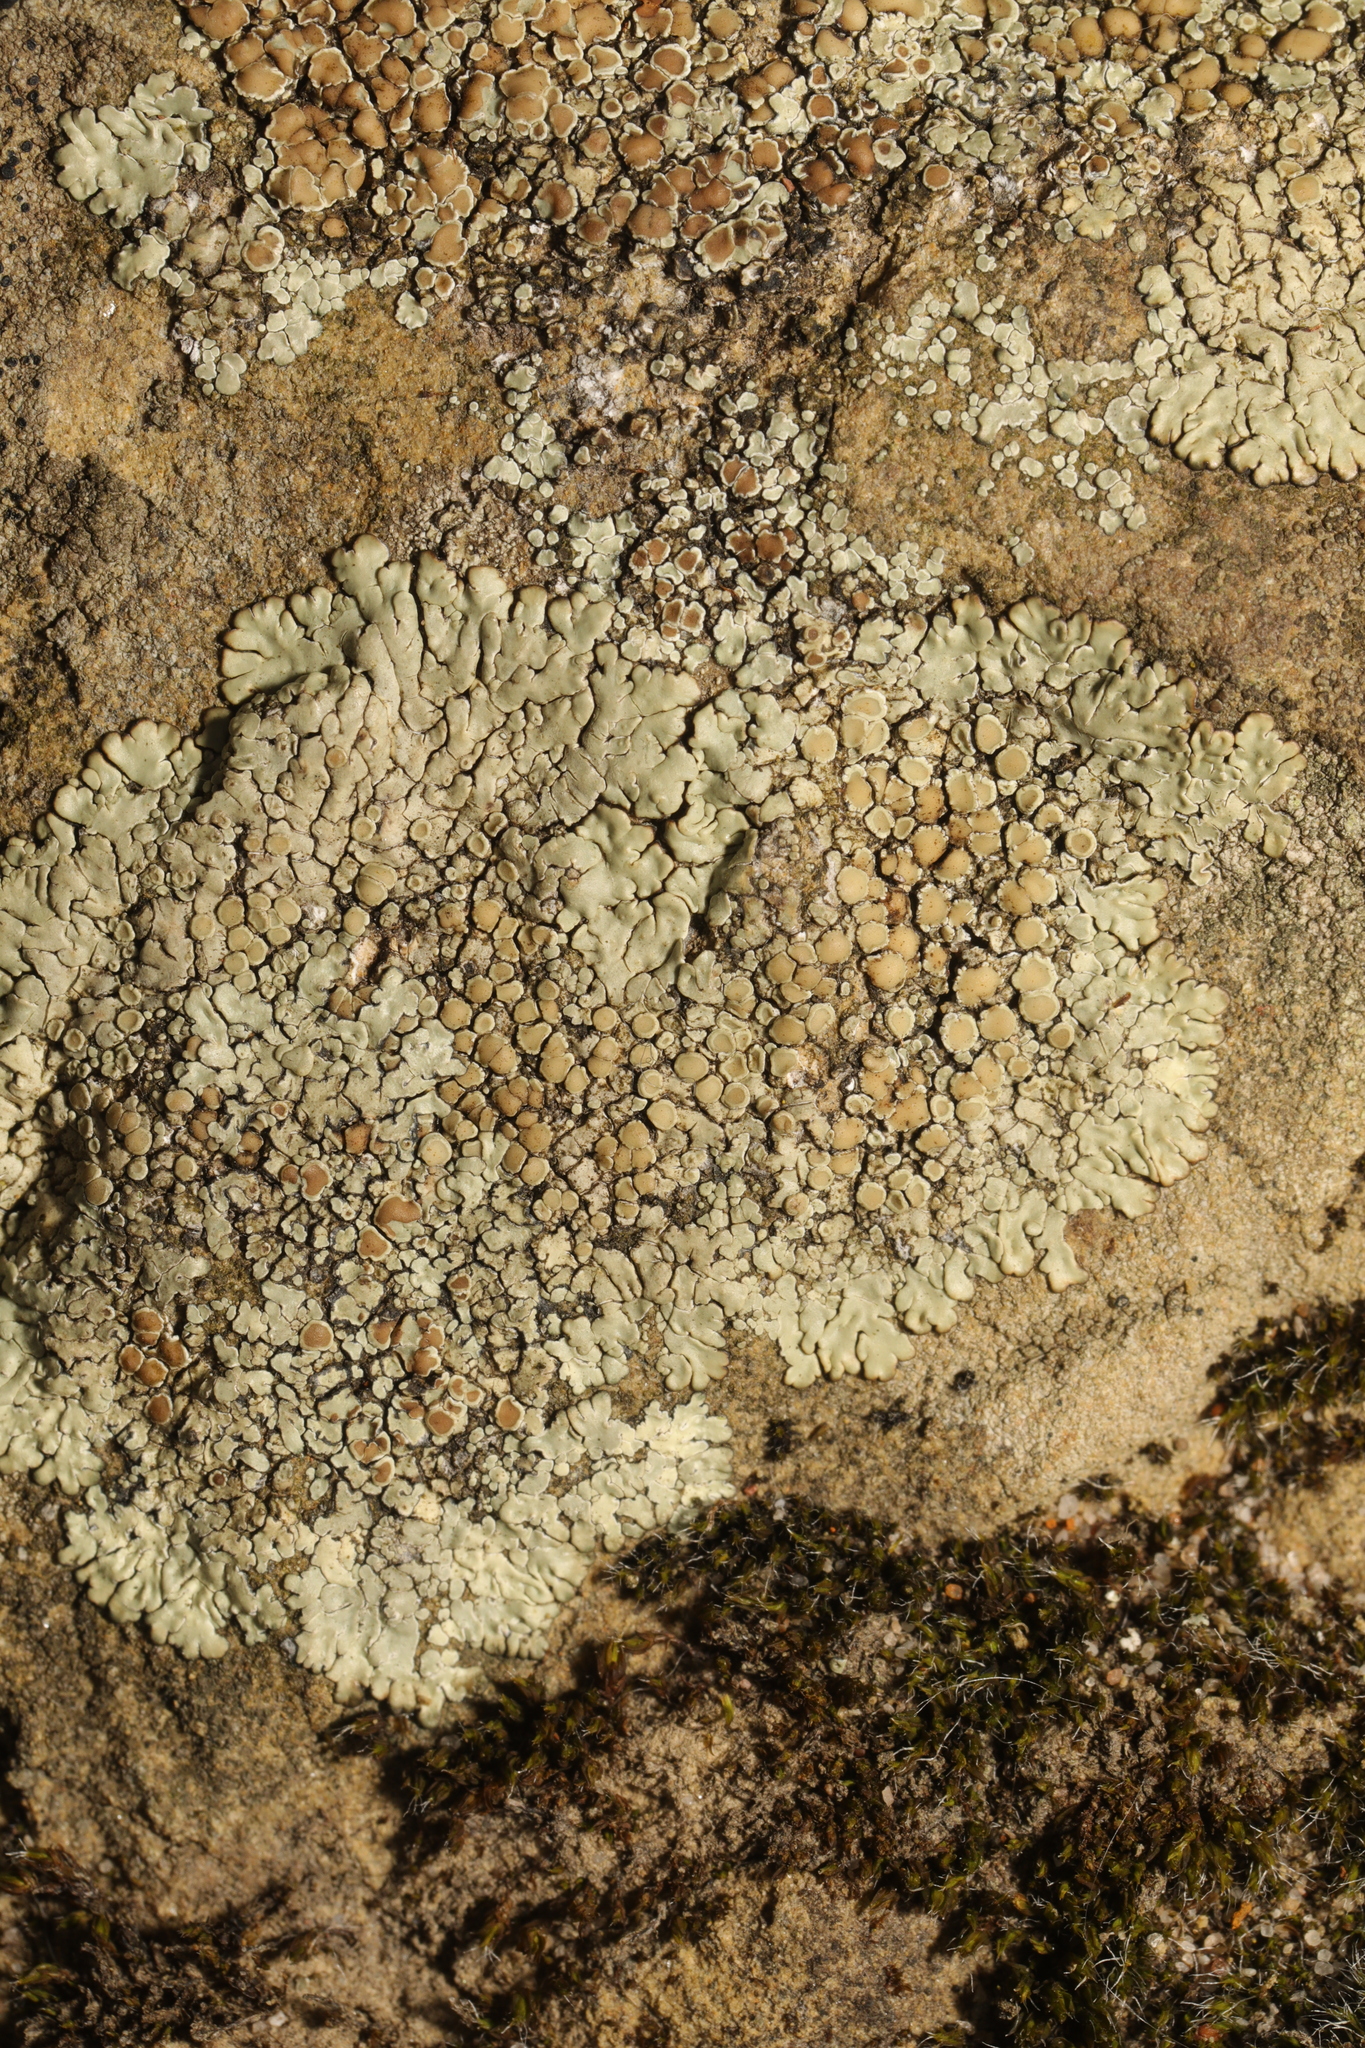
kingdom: Fungi
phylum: Ascomycota
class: Lecanoromycetes
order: Lecanorales
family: Lecanoraceae
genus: Protoparmeliopsis
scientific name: Protoparmeliopsis muralis
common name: Stonewall rim lichen
